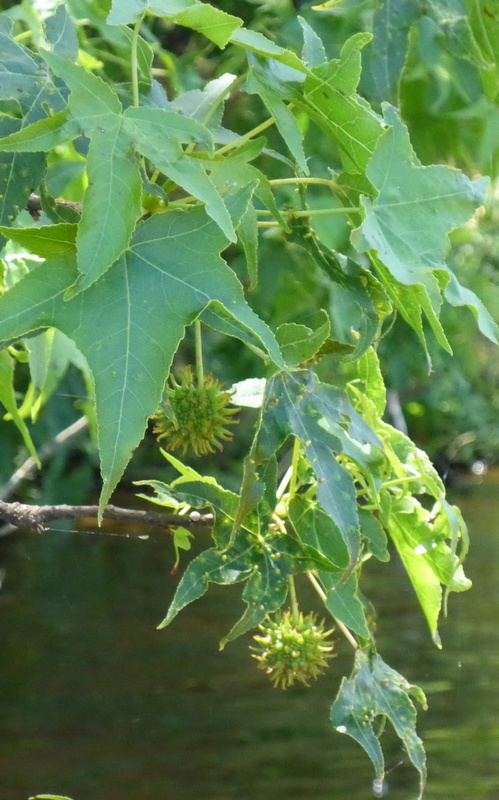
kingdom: Plantae
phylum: Tracheophyta
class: Magnoliopsida
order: Saxifragales
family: Altingiaceae
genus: Liquidambar
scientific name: Liquidambar styraciflua
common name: Sweet gum
